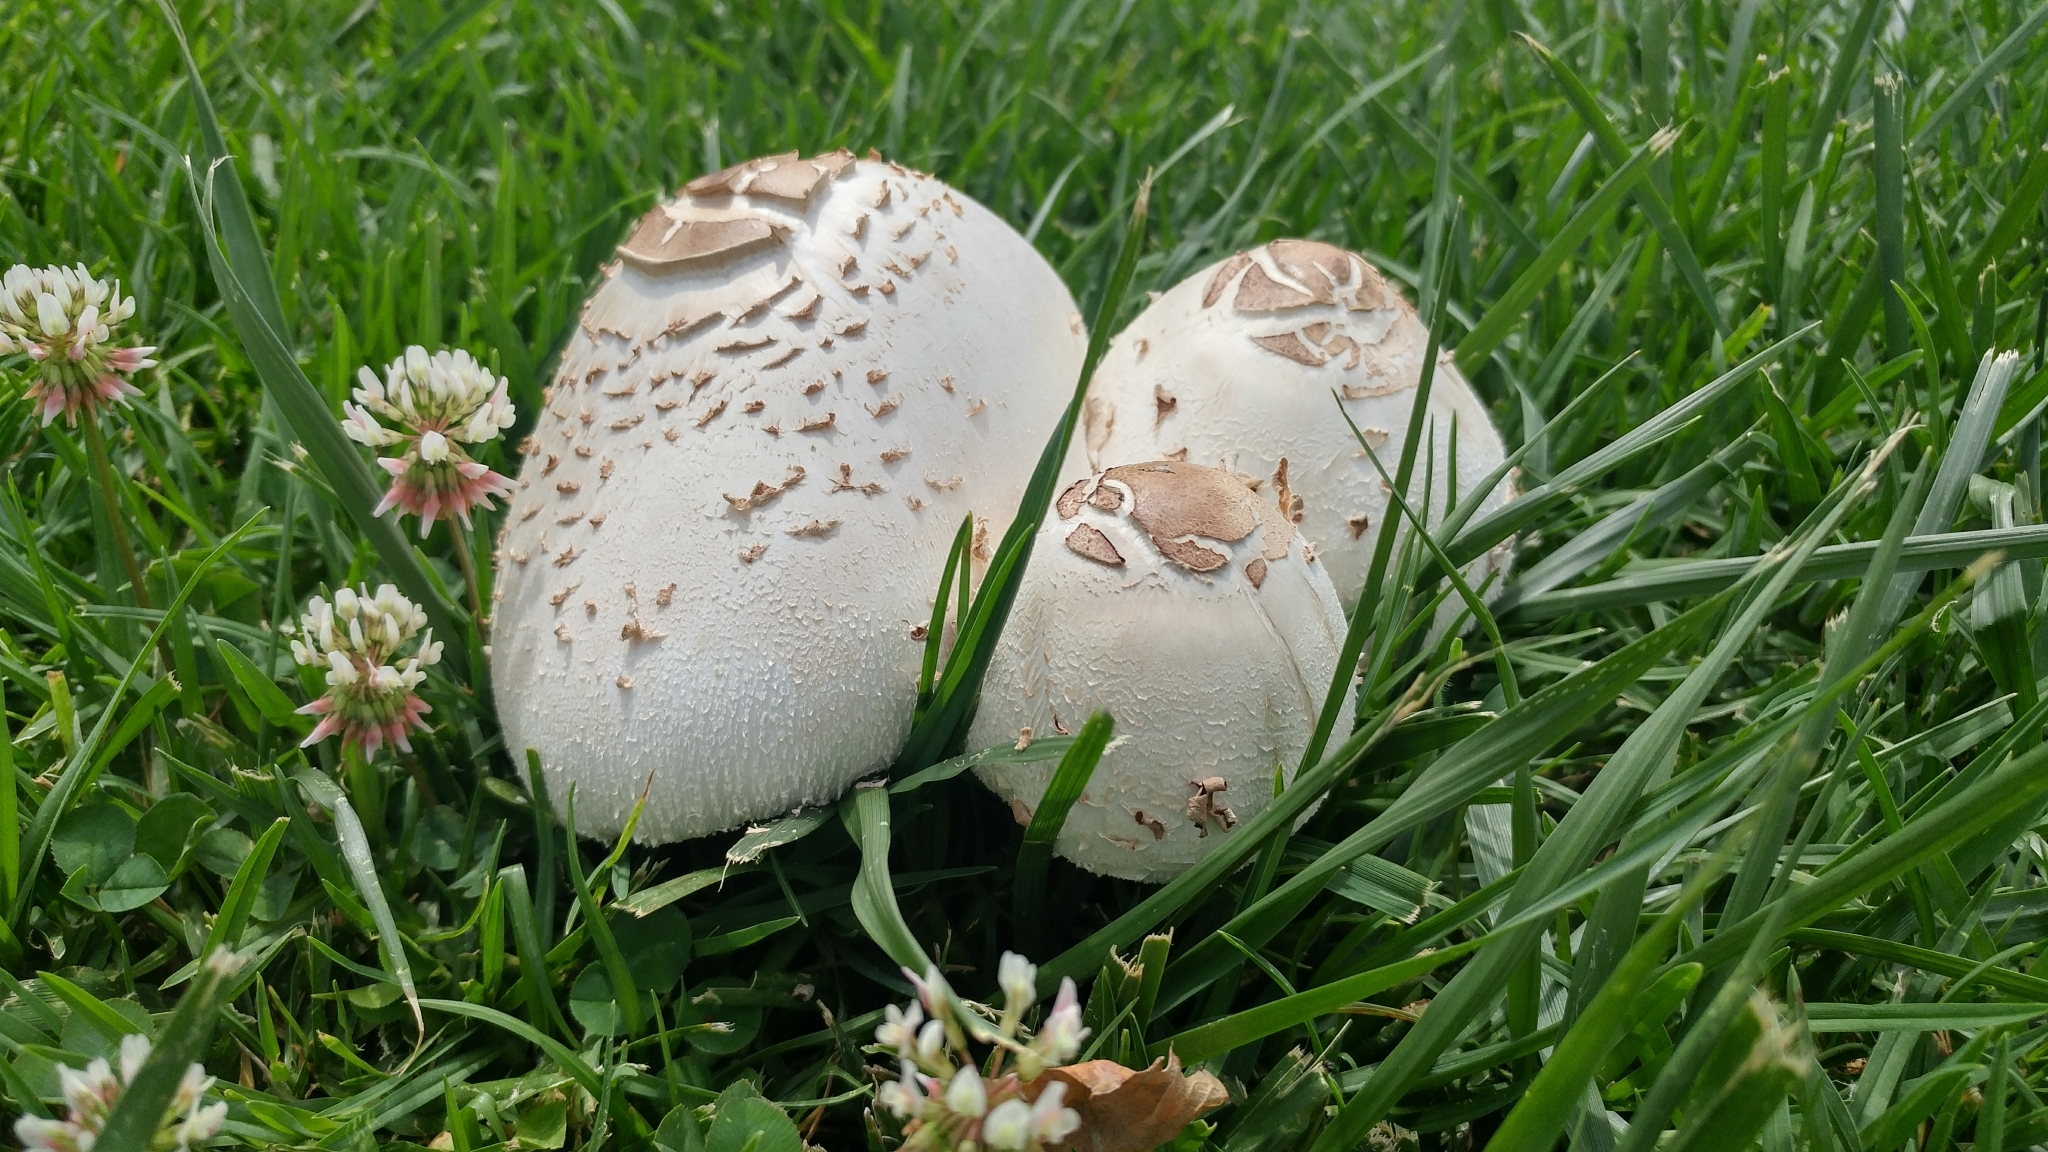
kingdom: Fungi
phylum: Basidiomycota
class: Agaricomycetes
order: Agaricales
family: Agaricaceae
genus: Chlorophyllum
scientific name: Chlorophyllum molybdites
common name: False parasol
